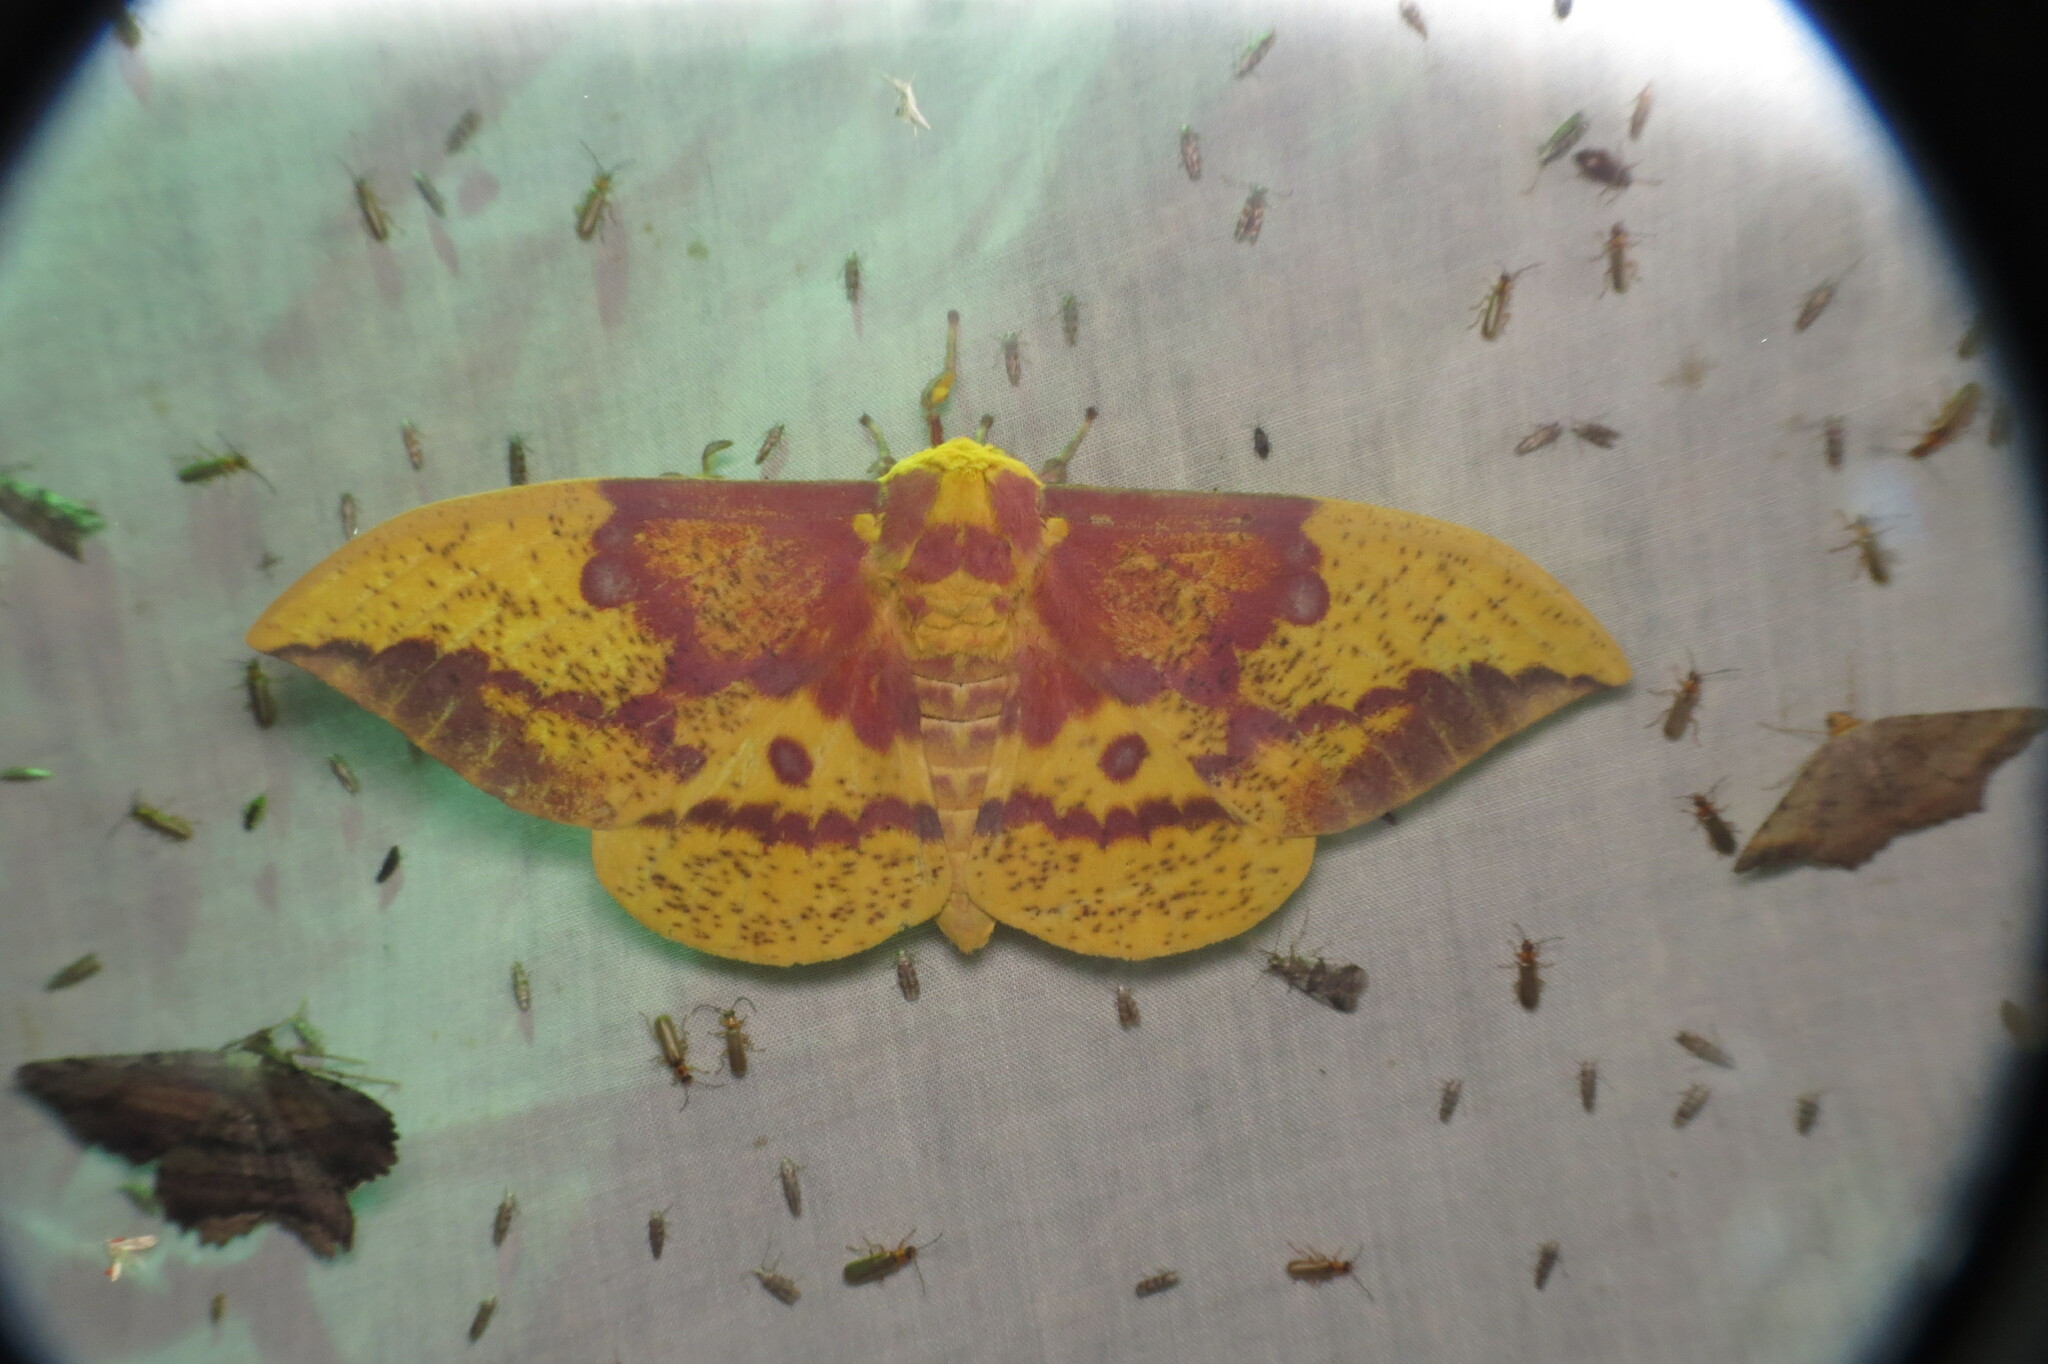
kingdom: Animalia
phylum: Arthropoda
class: Insecta
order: Lepidoptera
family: Saturniidae
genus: Eacles
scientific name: Eacles imperialis
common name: Imperial moth
